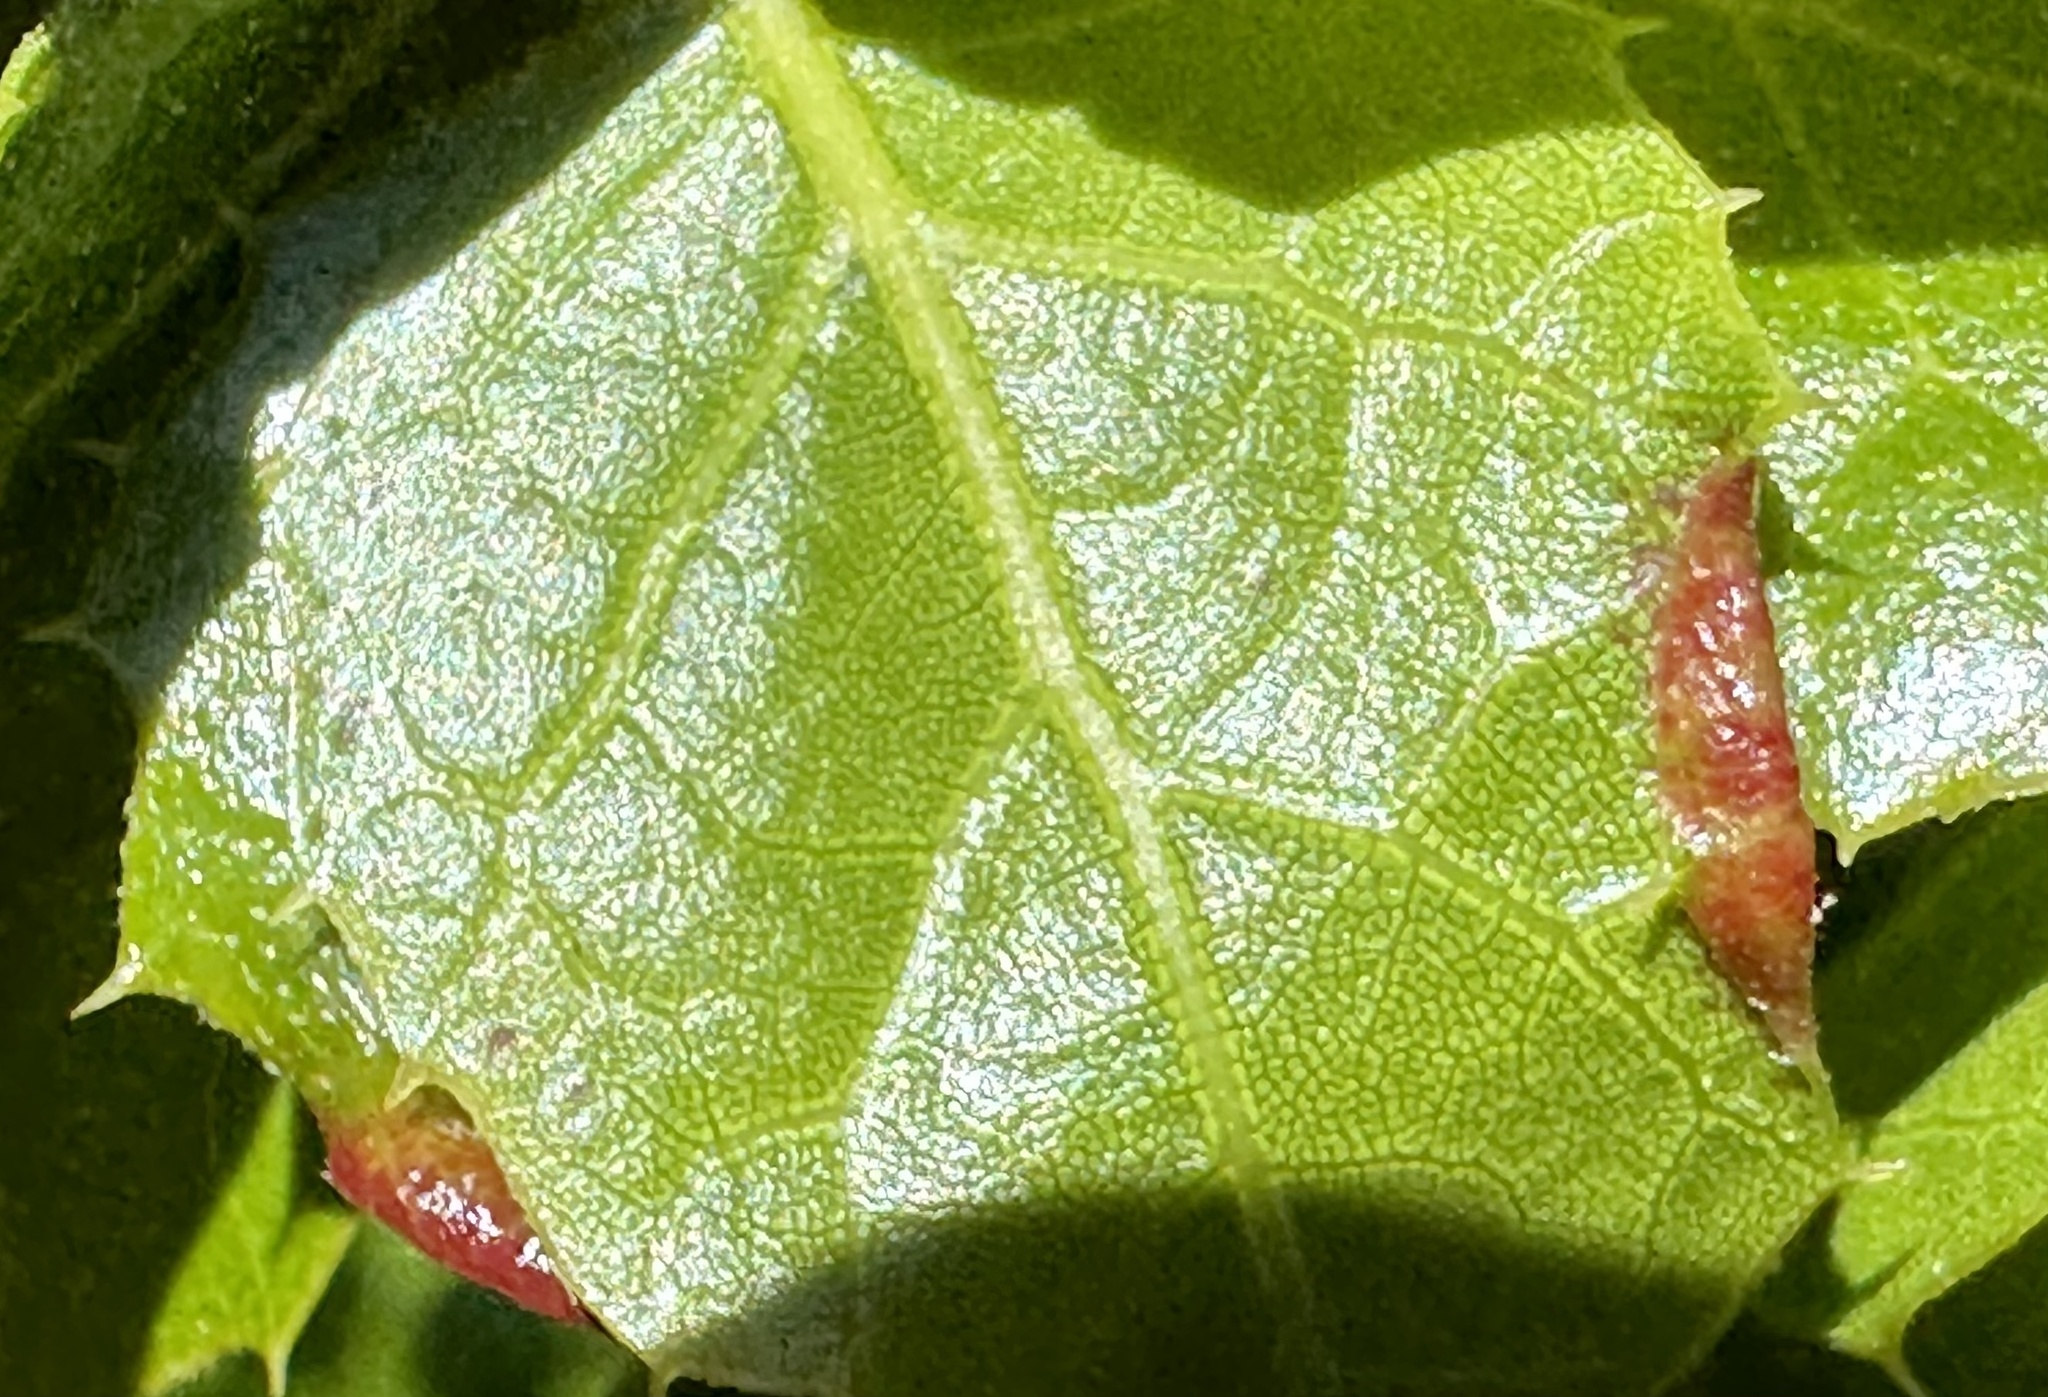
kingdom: Animalia
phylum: Arthropoda
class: Insecta
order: Hemiptera
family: Aphididae
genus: Stegophylla
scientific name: Stegophylla essigi
